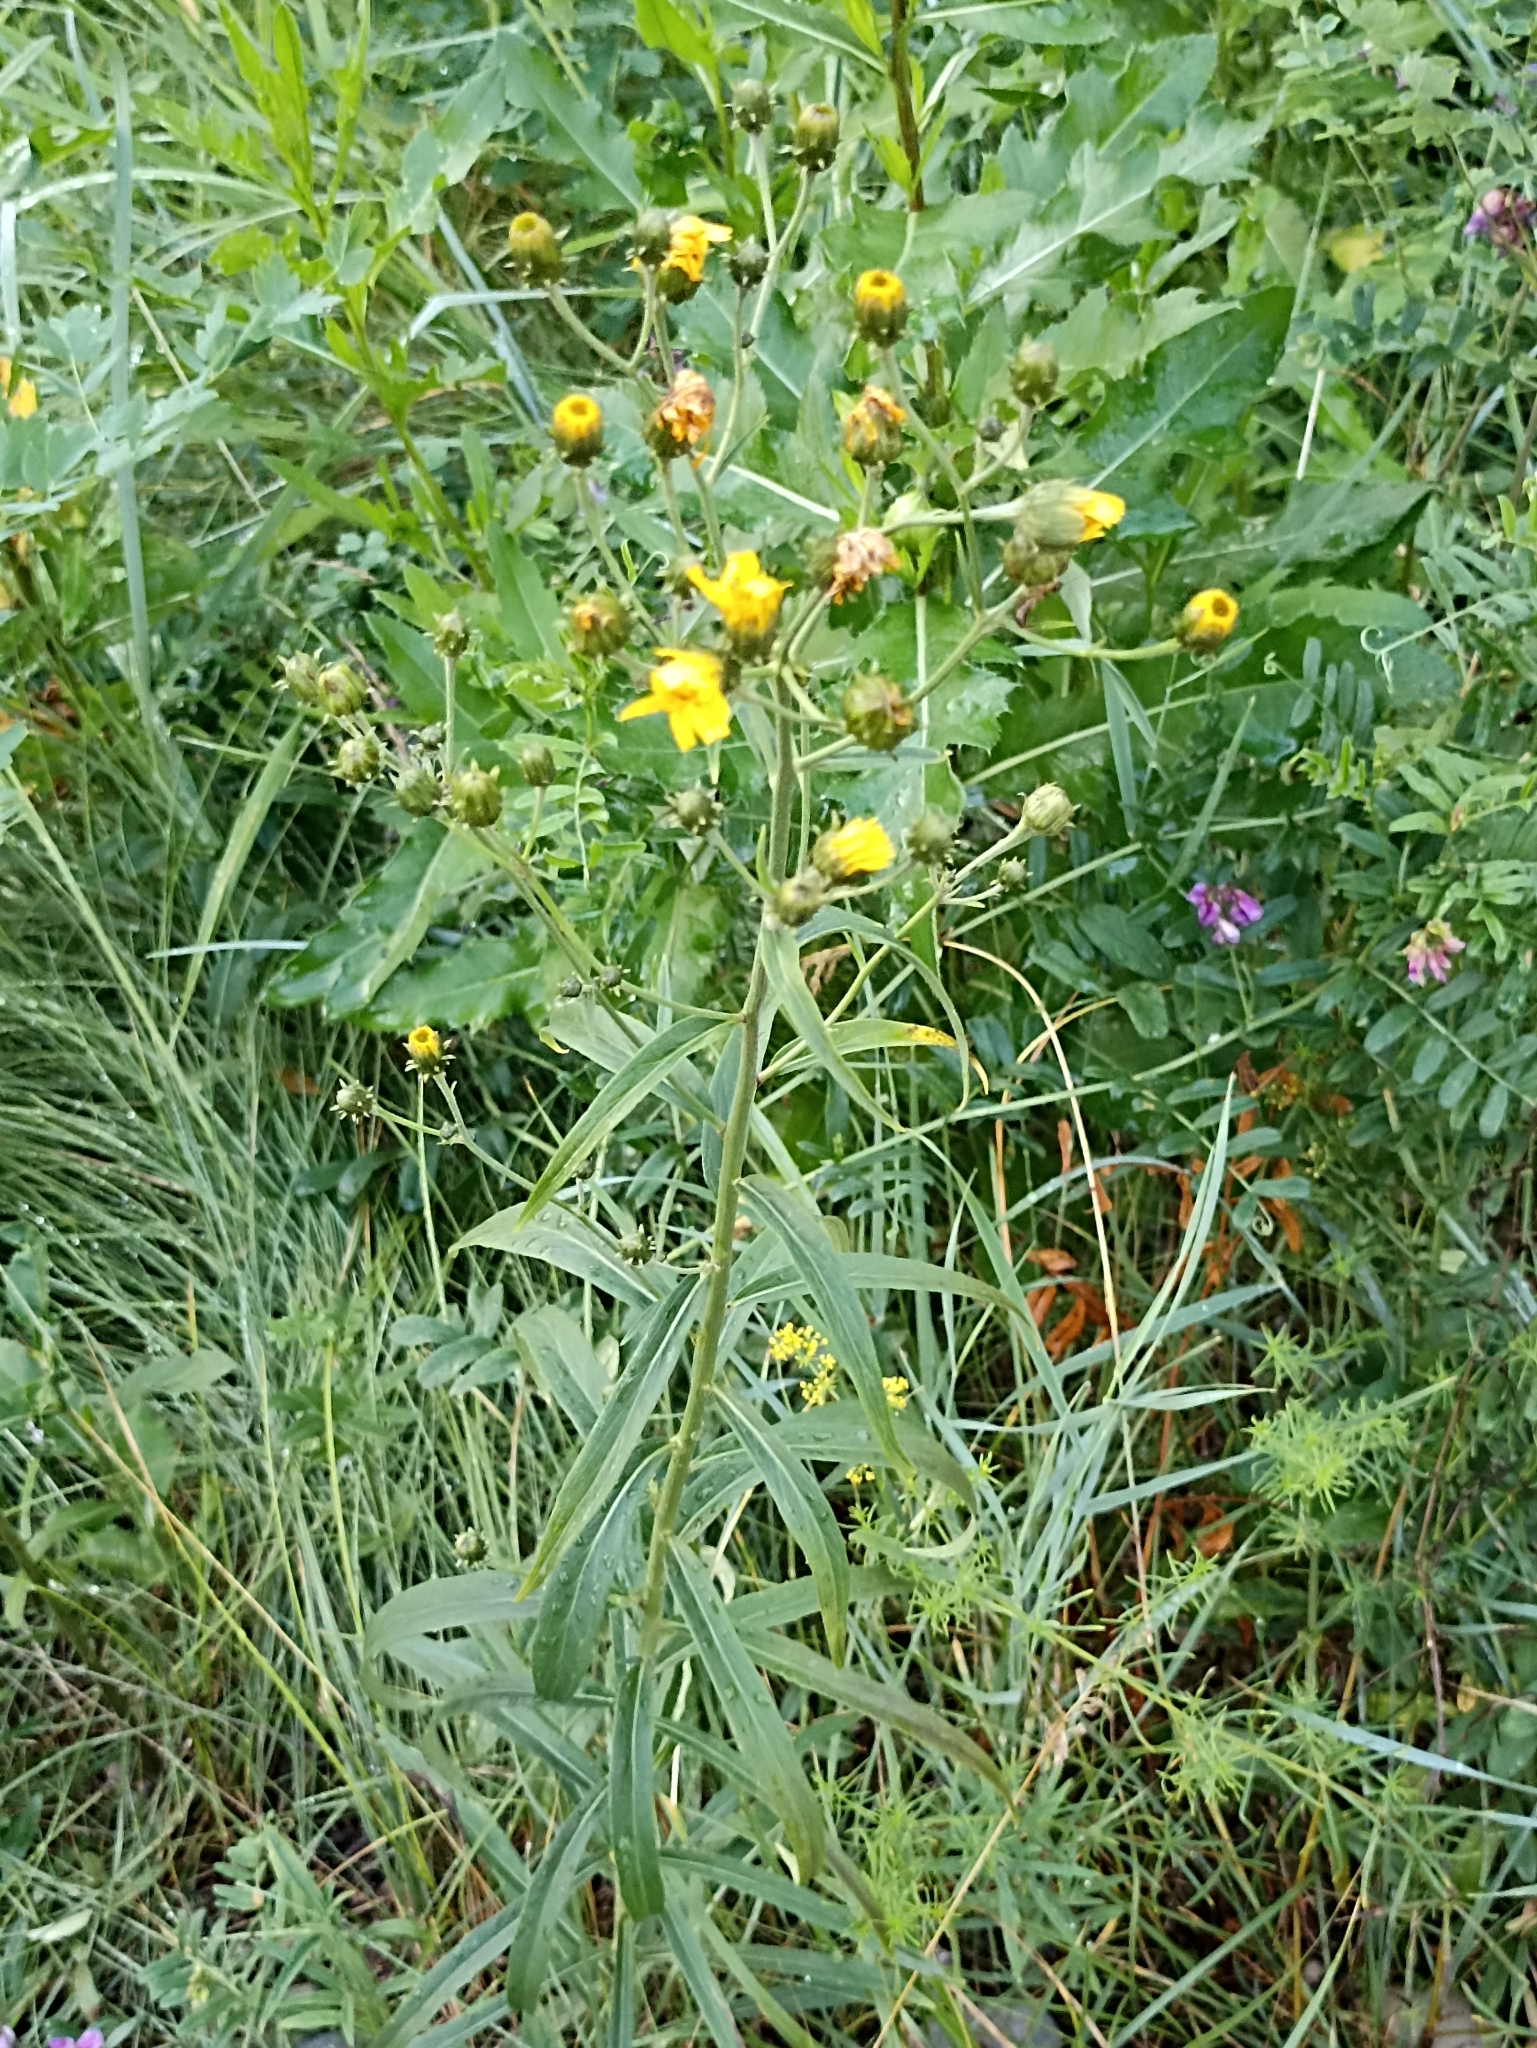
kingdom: Plantae
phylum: Tracheophyta
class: Magnoliopsida
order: Asterales
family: Asteraceae
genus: Hieracium
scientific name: Hieracium umbellatum
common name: Northern hawkweed
